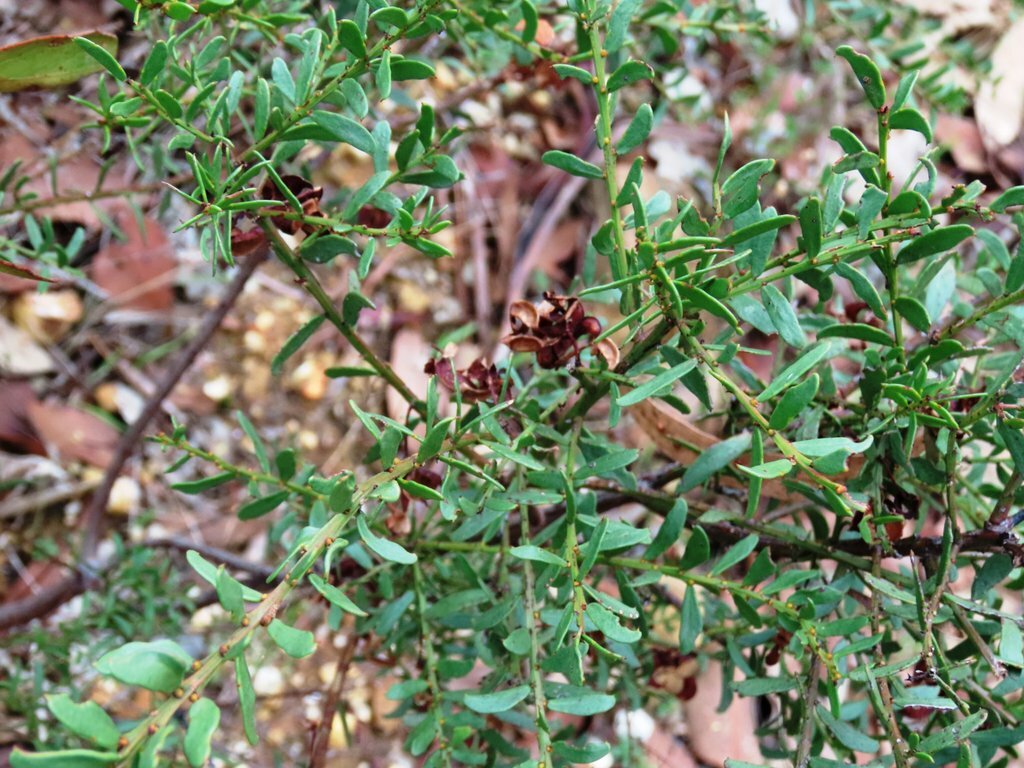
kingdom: Plantae
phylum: Tracheophyta
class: Magnoliopsida
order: Fabales
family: Fabaceae
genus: Acacia
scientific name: Acacia acinacea
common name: Gold-dust acacia
